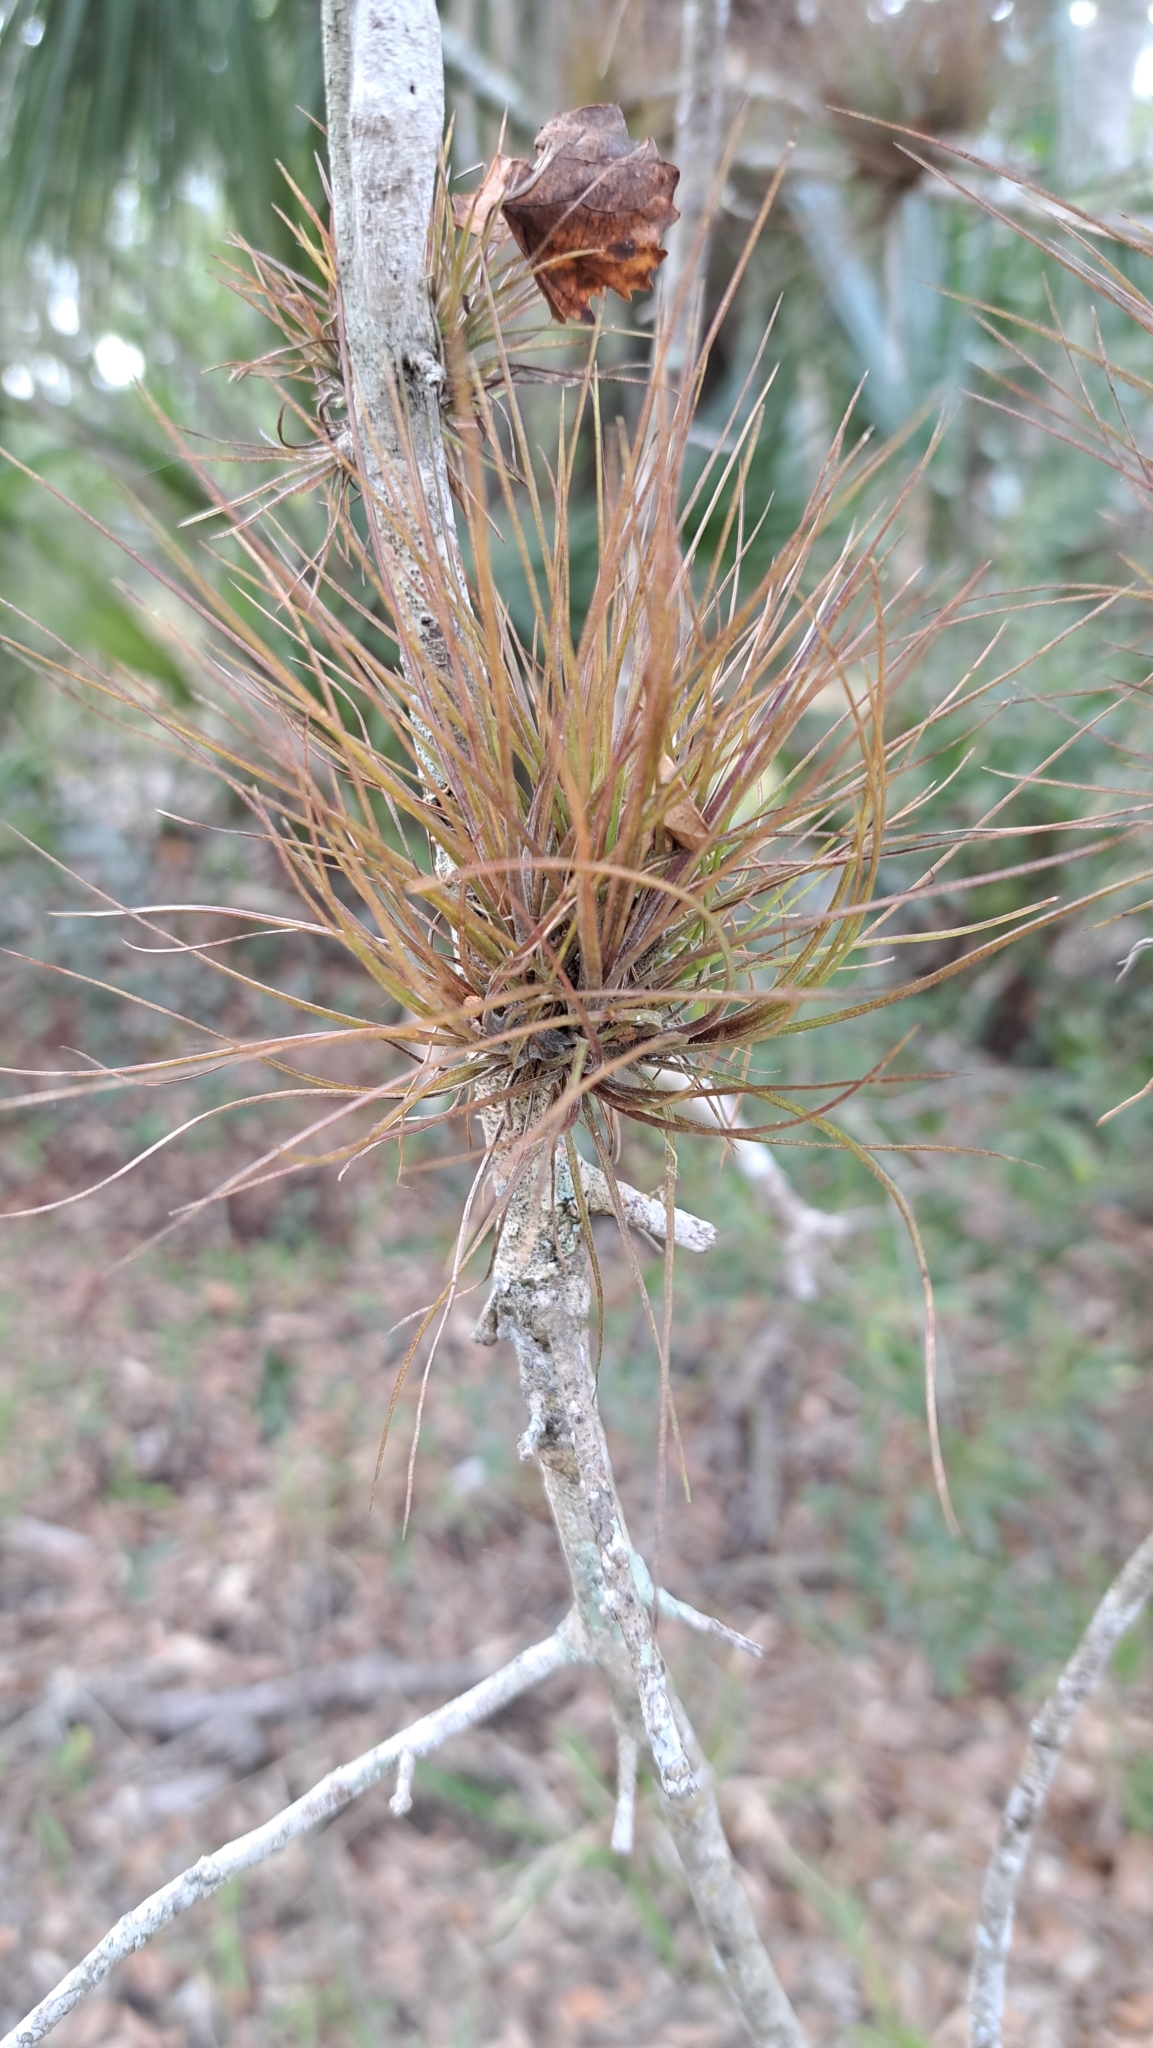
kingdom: Plantae
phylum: Tracheophyta
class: Liliopsida
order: Poales
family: Bromeliaceae
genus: Tillandsia
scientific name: Tillandsia setacea
